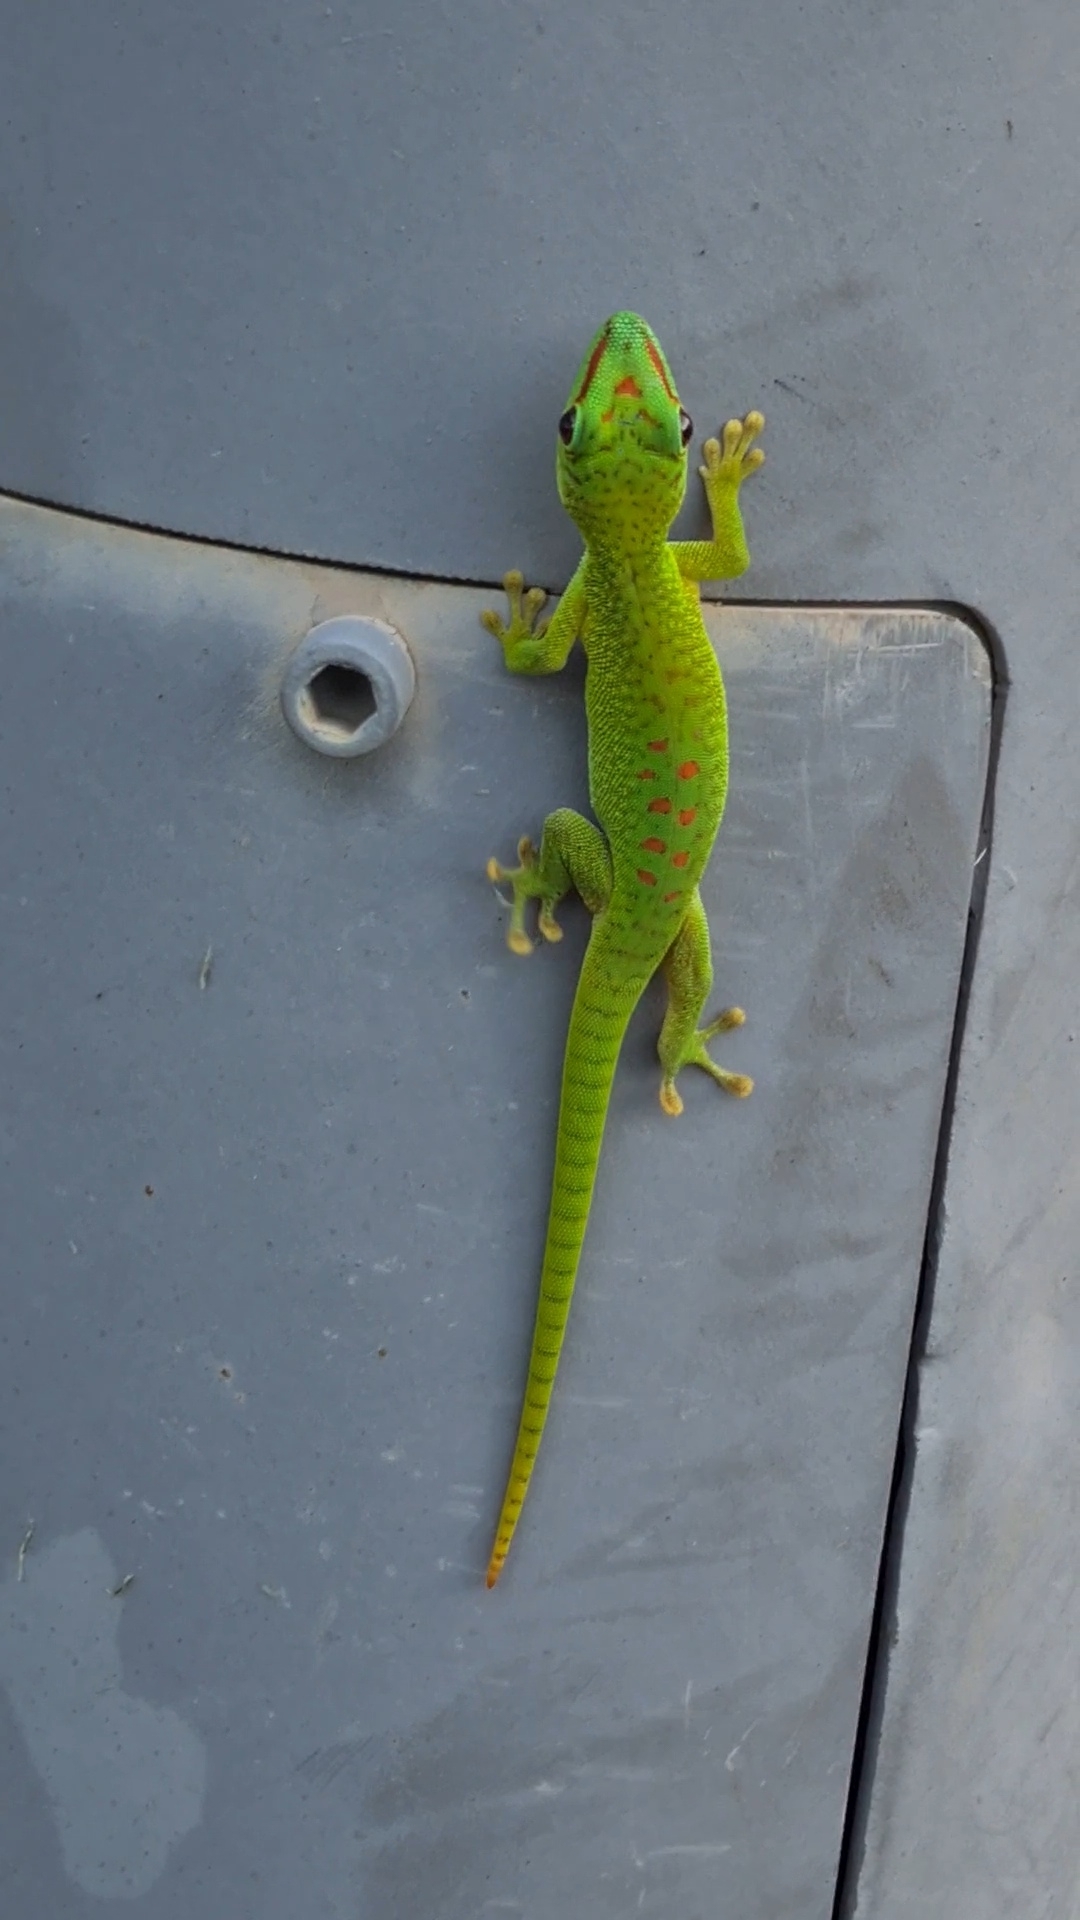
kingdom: Animalia
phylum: Chordata
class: Squamata
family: Gekkonidae
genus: Phelsuma
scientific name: Phelsuma grandis
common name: Madagascar giant day gecko
